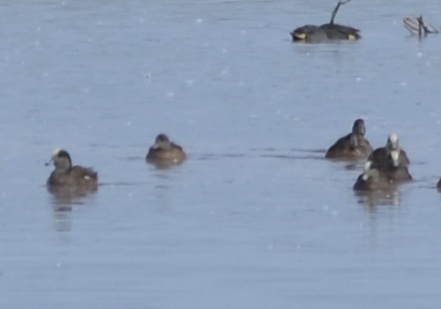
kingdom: Animalia
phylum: Chordata
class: Aves
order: Anseriformes
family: Anatidae
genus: Mareca
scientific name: Mareca americana
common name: American wigeon
